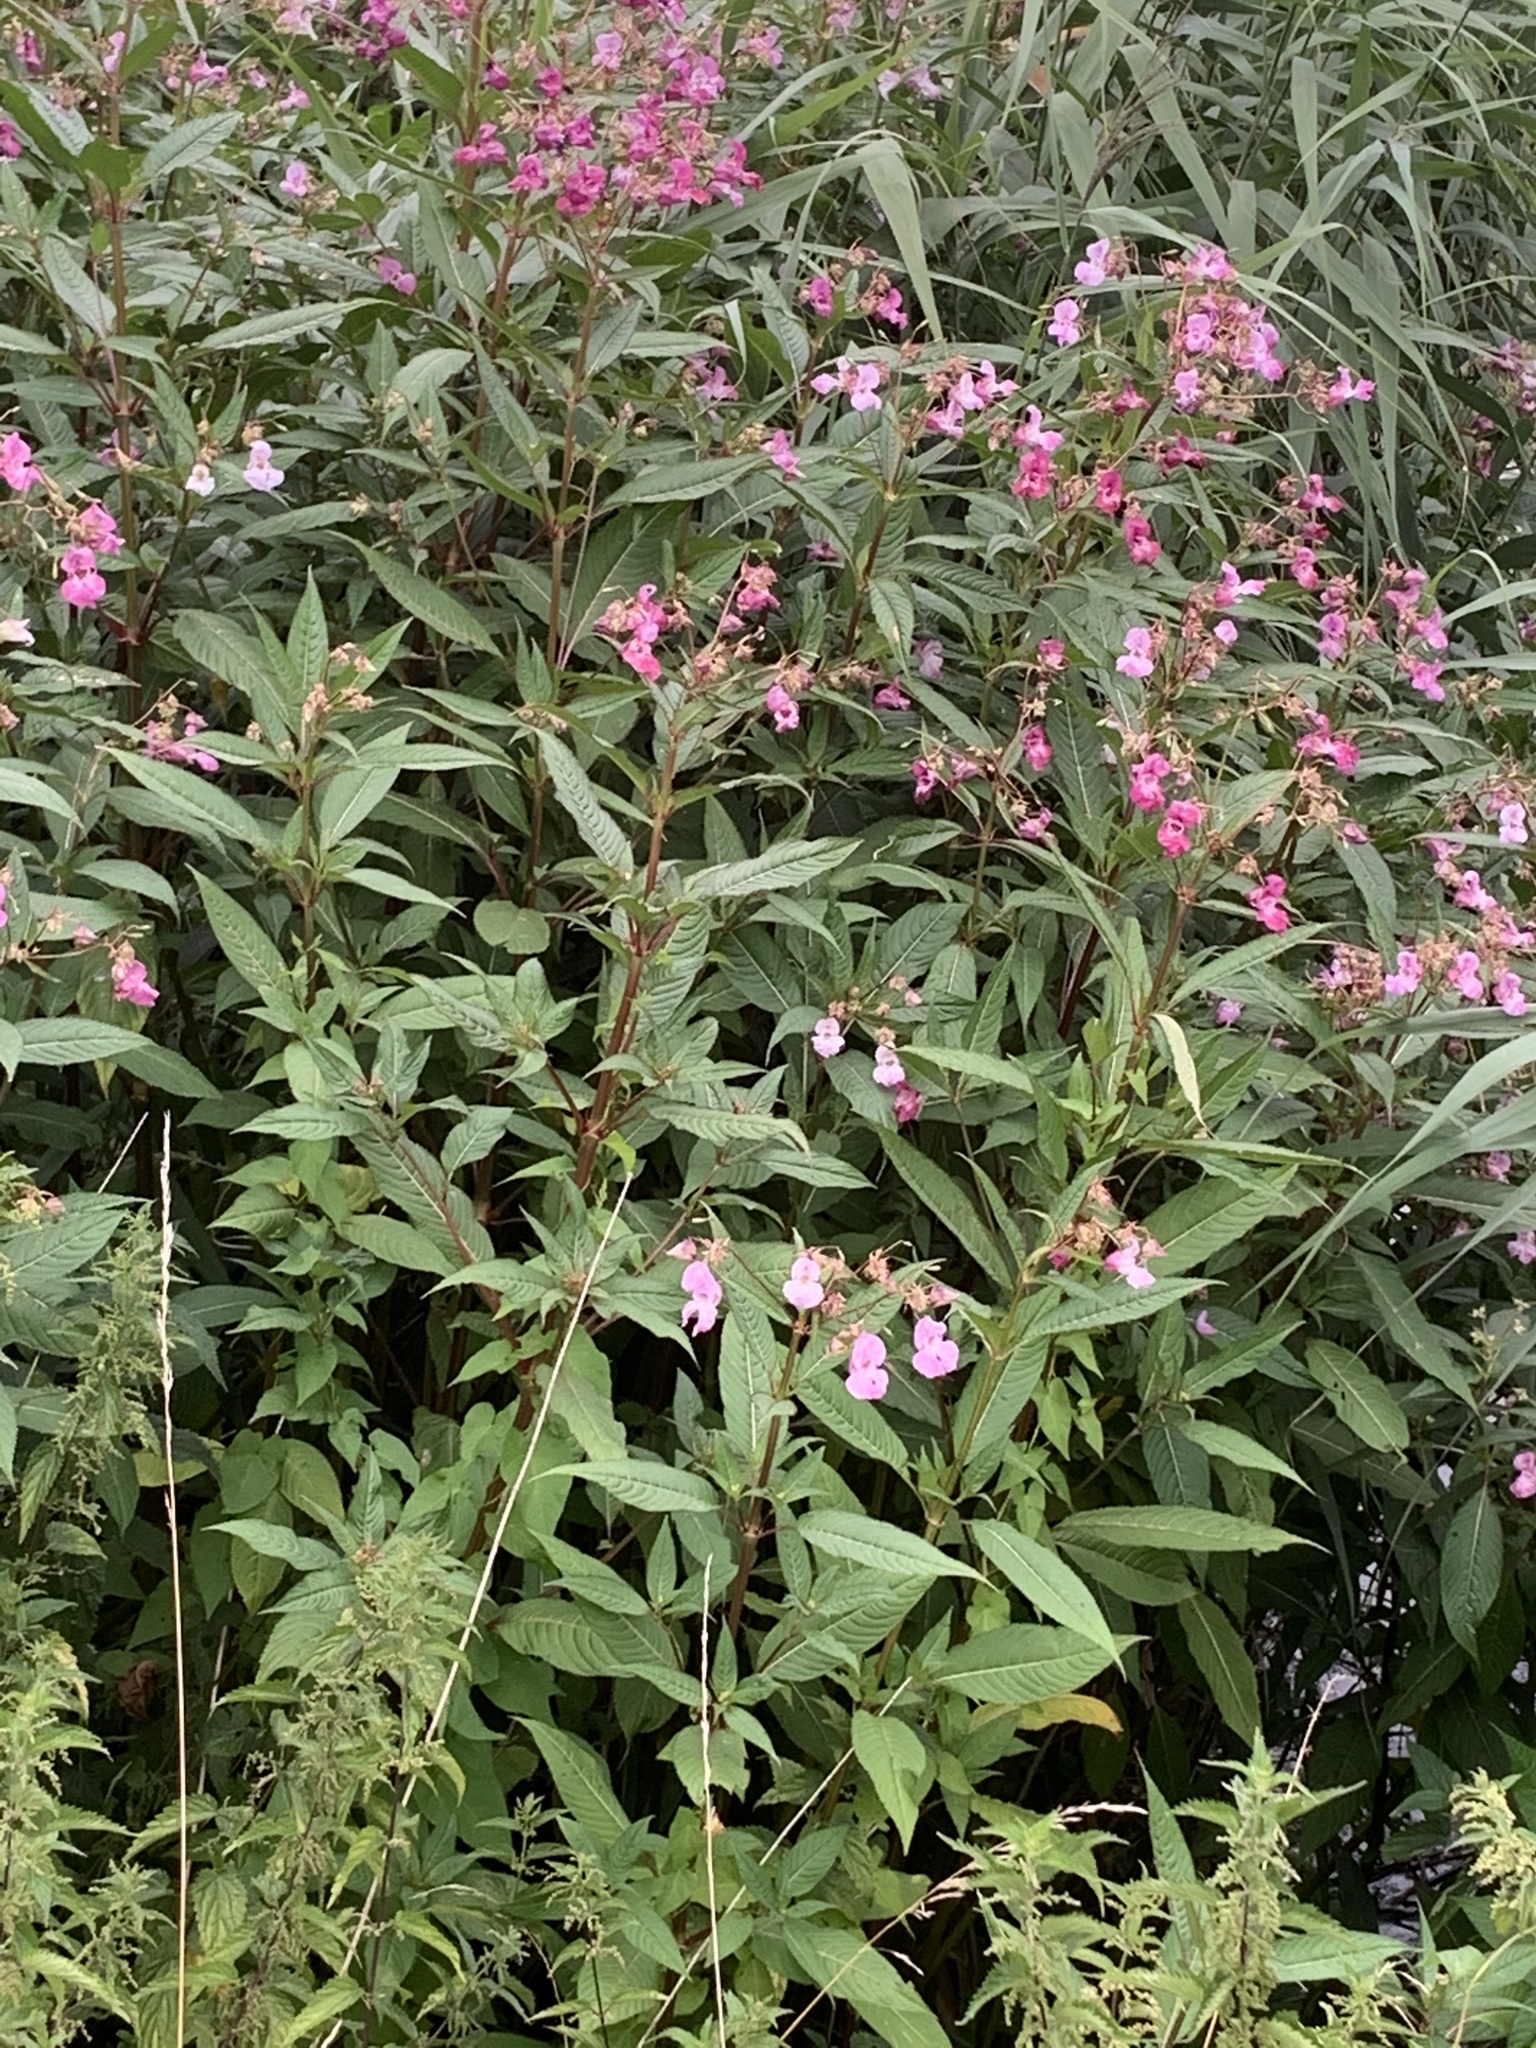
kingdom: Plantae
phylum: Tracheophyta
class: Magnoliopsida
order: Ericales
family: Balsaminaceae
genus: Impatiens
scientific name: Impatiens glandulifera
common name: Himalayan balsam
